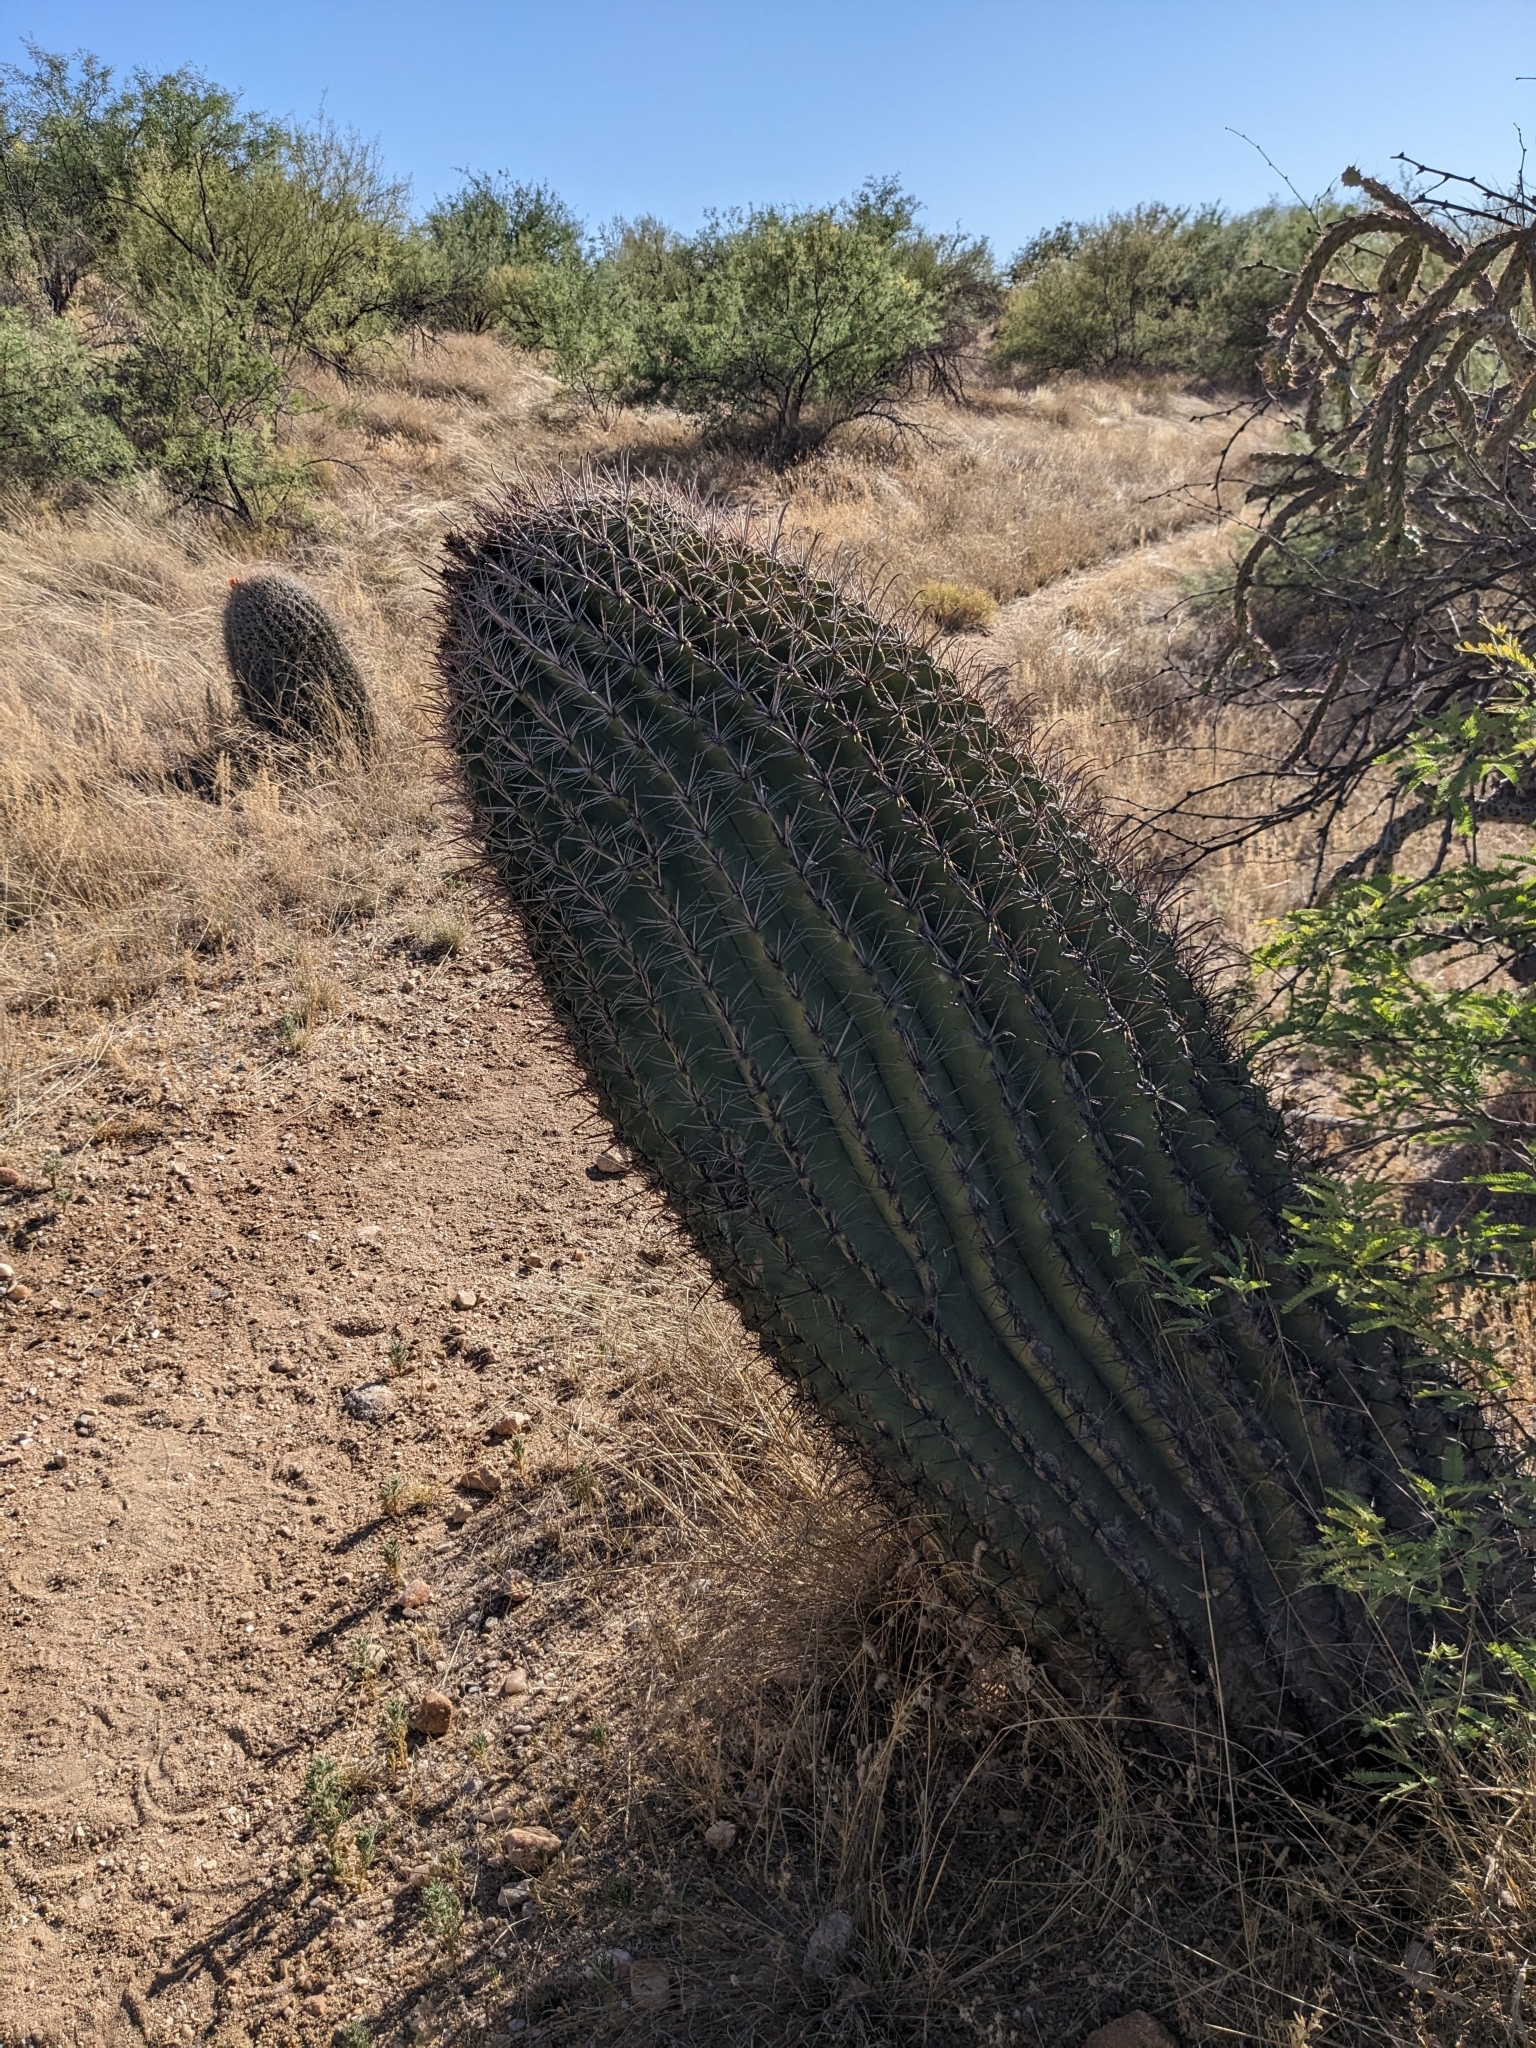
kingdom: Plantae
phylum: Tracheophyta
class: Magnoliopsida
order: Caryophyllales
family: Cactaceae
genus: Ferocactus
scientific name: Ferocactus wislizeni
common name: Candy barrel cactus
